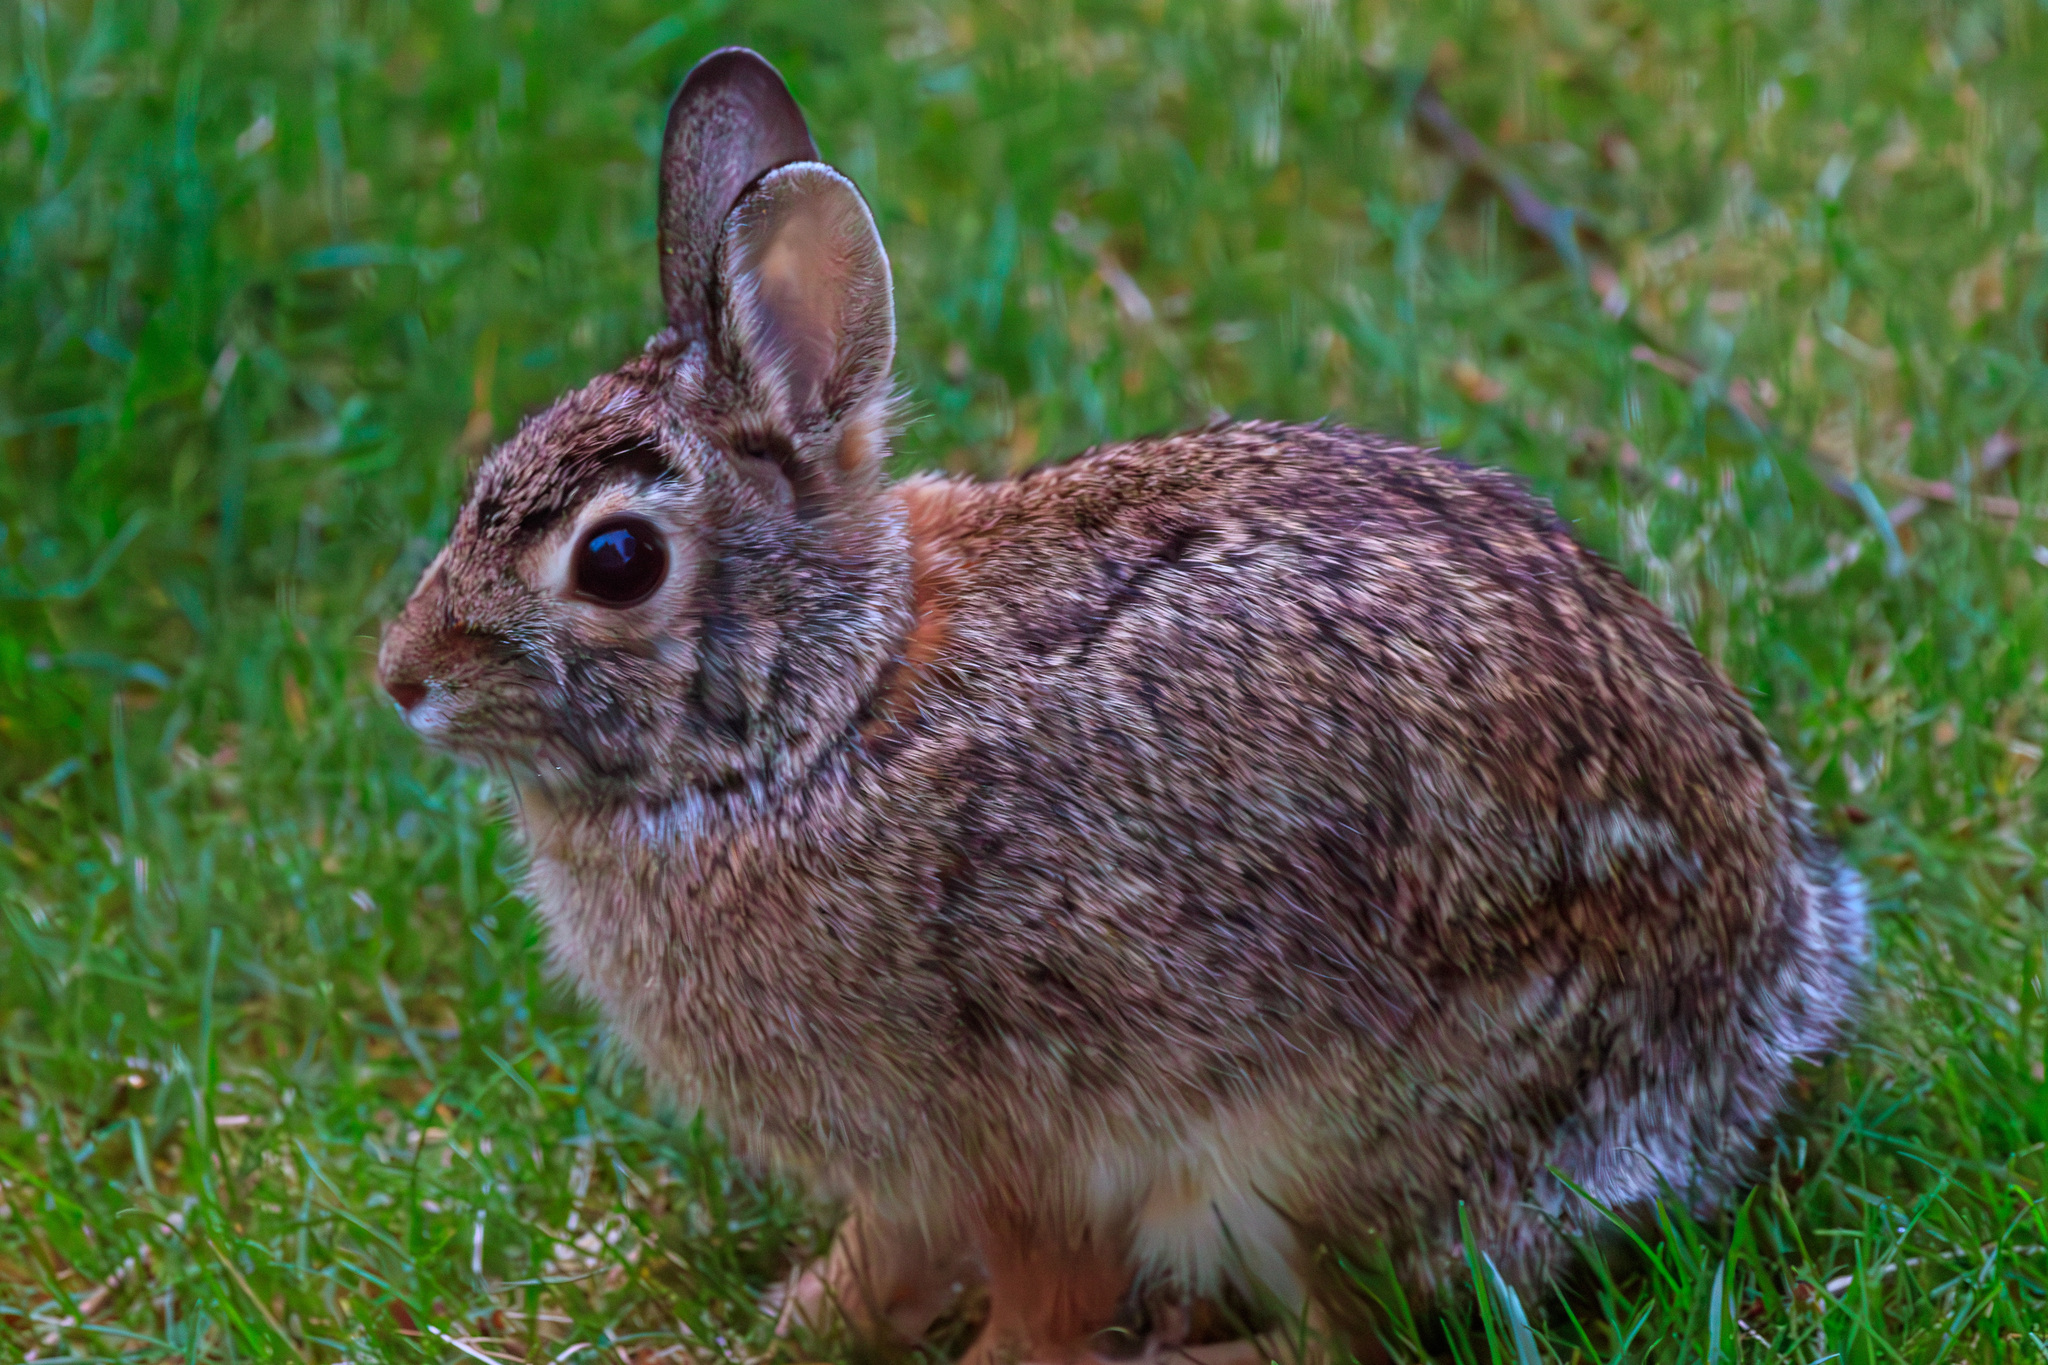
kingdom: Animalia
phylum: Chordata
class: Mammalia
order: Lagomorpha
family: Leporidae
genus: Sylvilagus
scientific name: Sylvilagus floridanus
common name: Eastern cottontail
